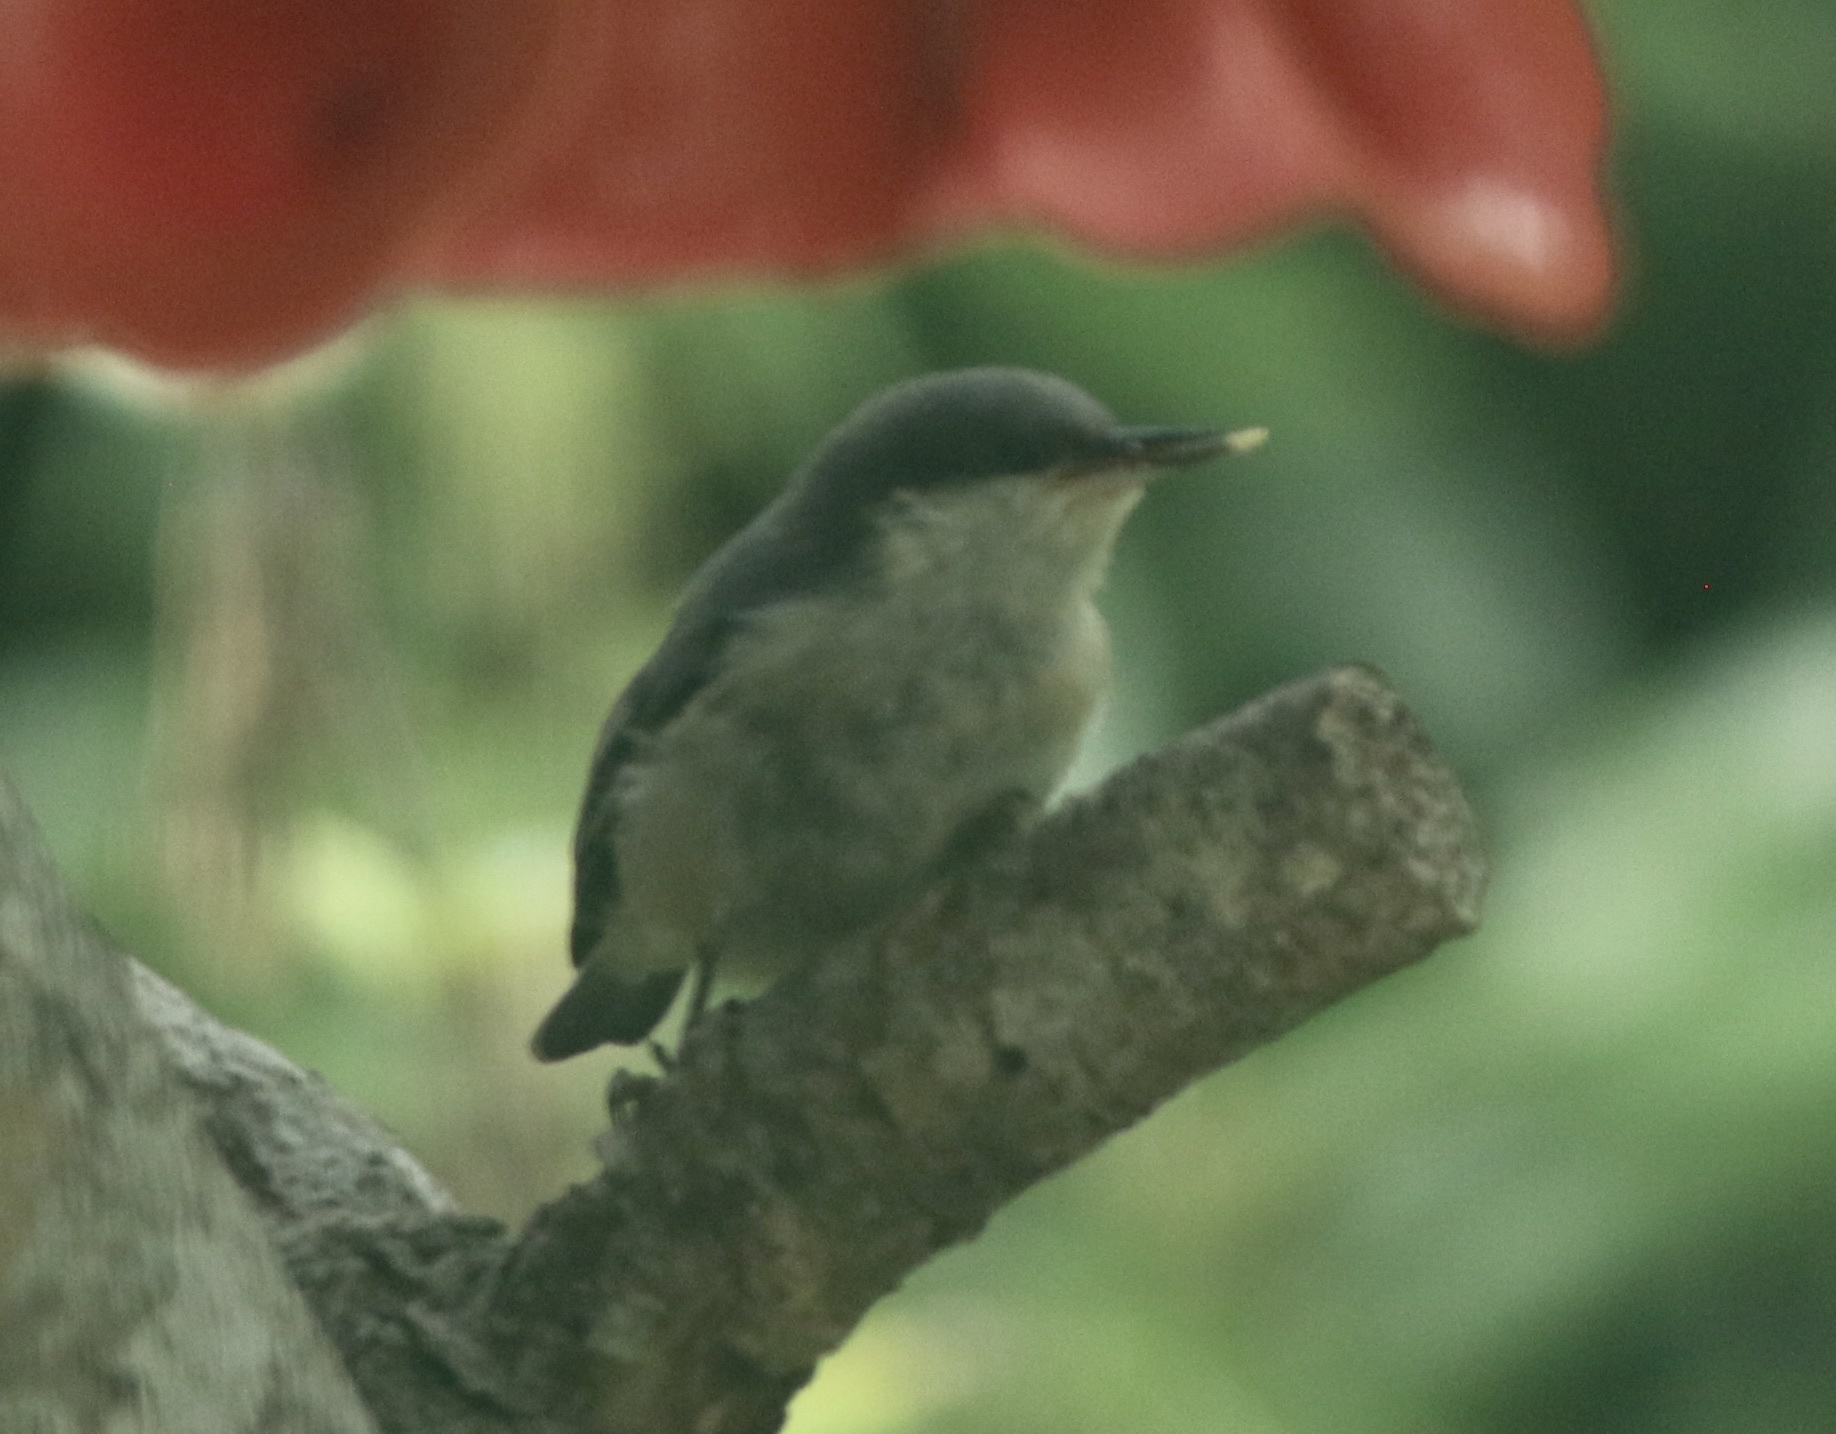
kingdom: Animalia
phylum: Chordata
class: Aves
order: Passeriformes
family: Sittidae
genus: Sitta
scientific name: Sitta pygmaea
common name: Pygmy nuthatch
